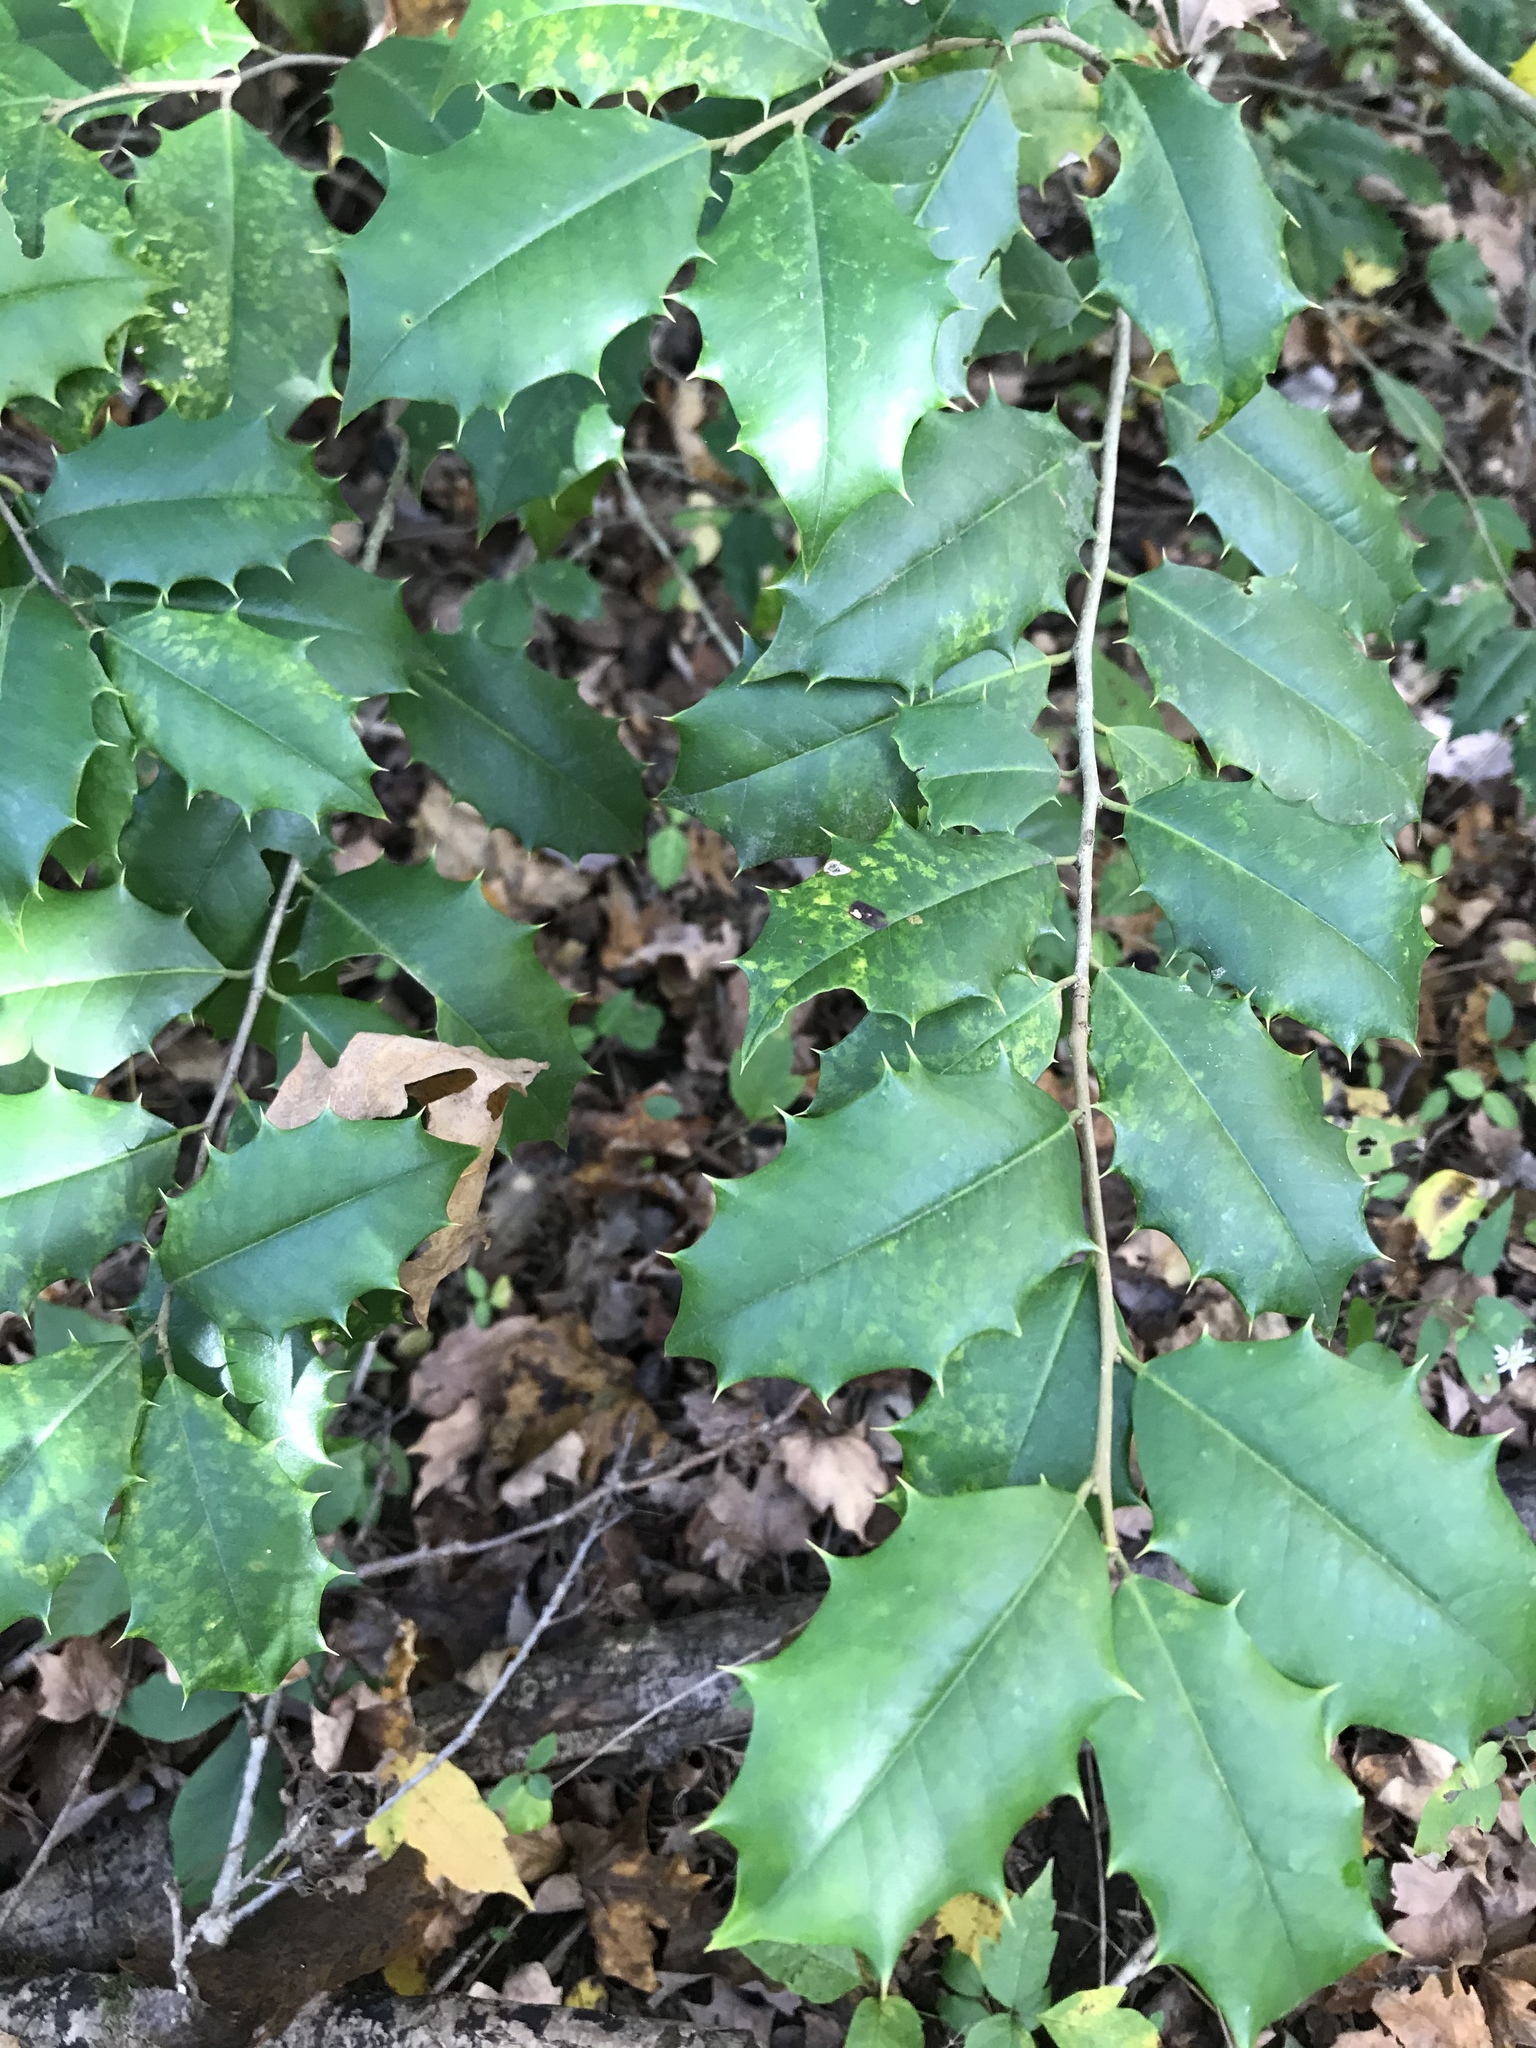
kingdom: Plantae
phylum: Tracheophyta
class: Magnoliopsida
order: Aquifoliales
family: Aquifoliaceae
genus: Ilex
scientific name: Ilex opaca
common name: American holly
